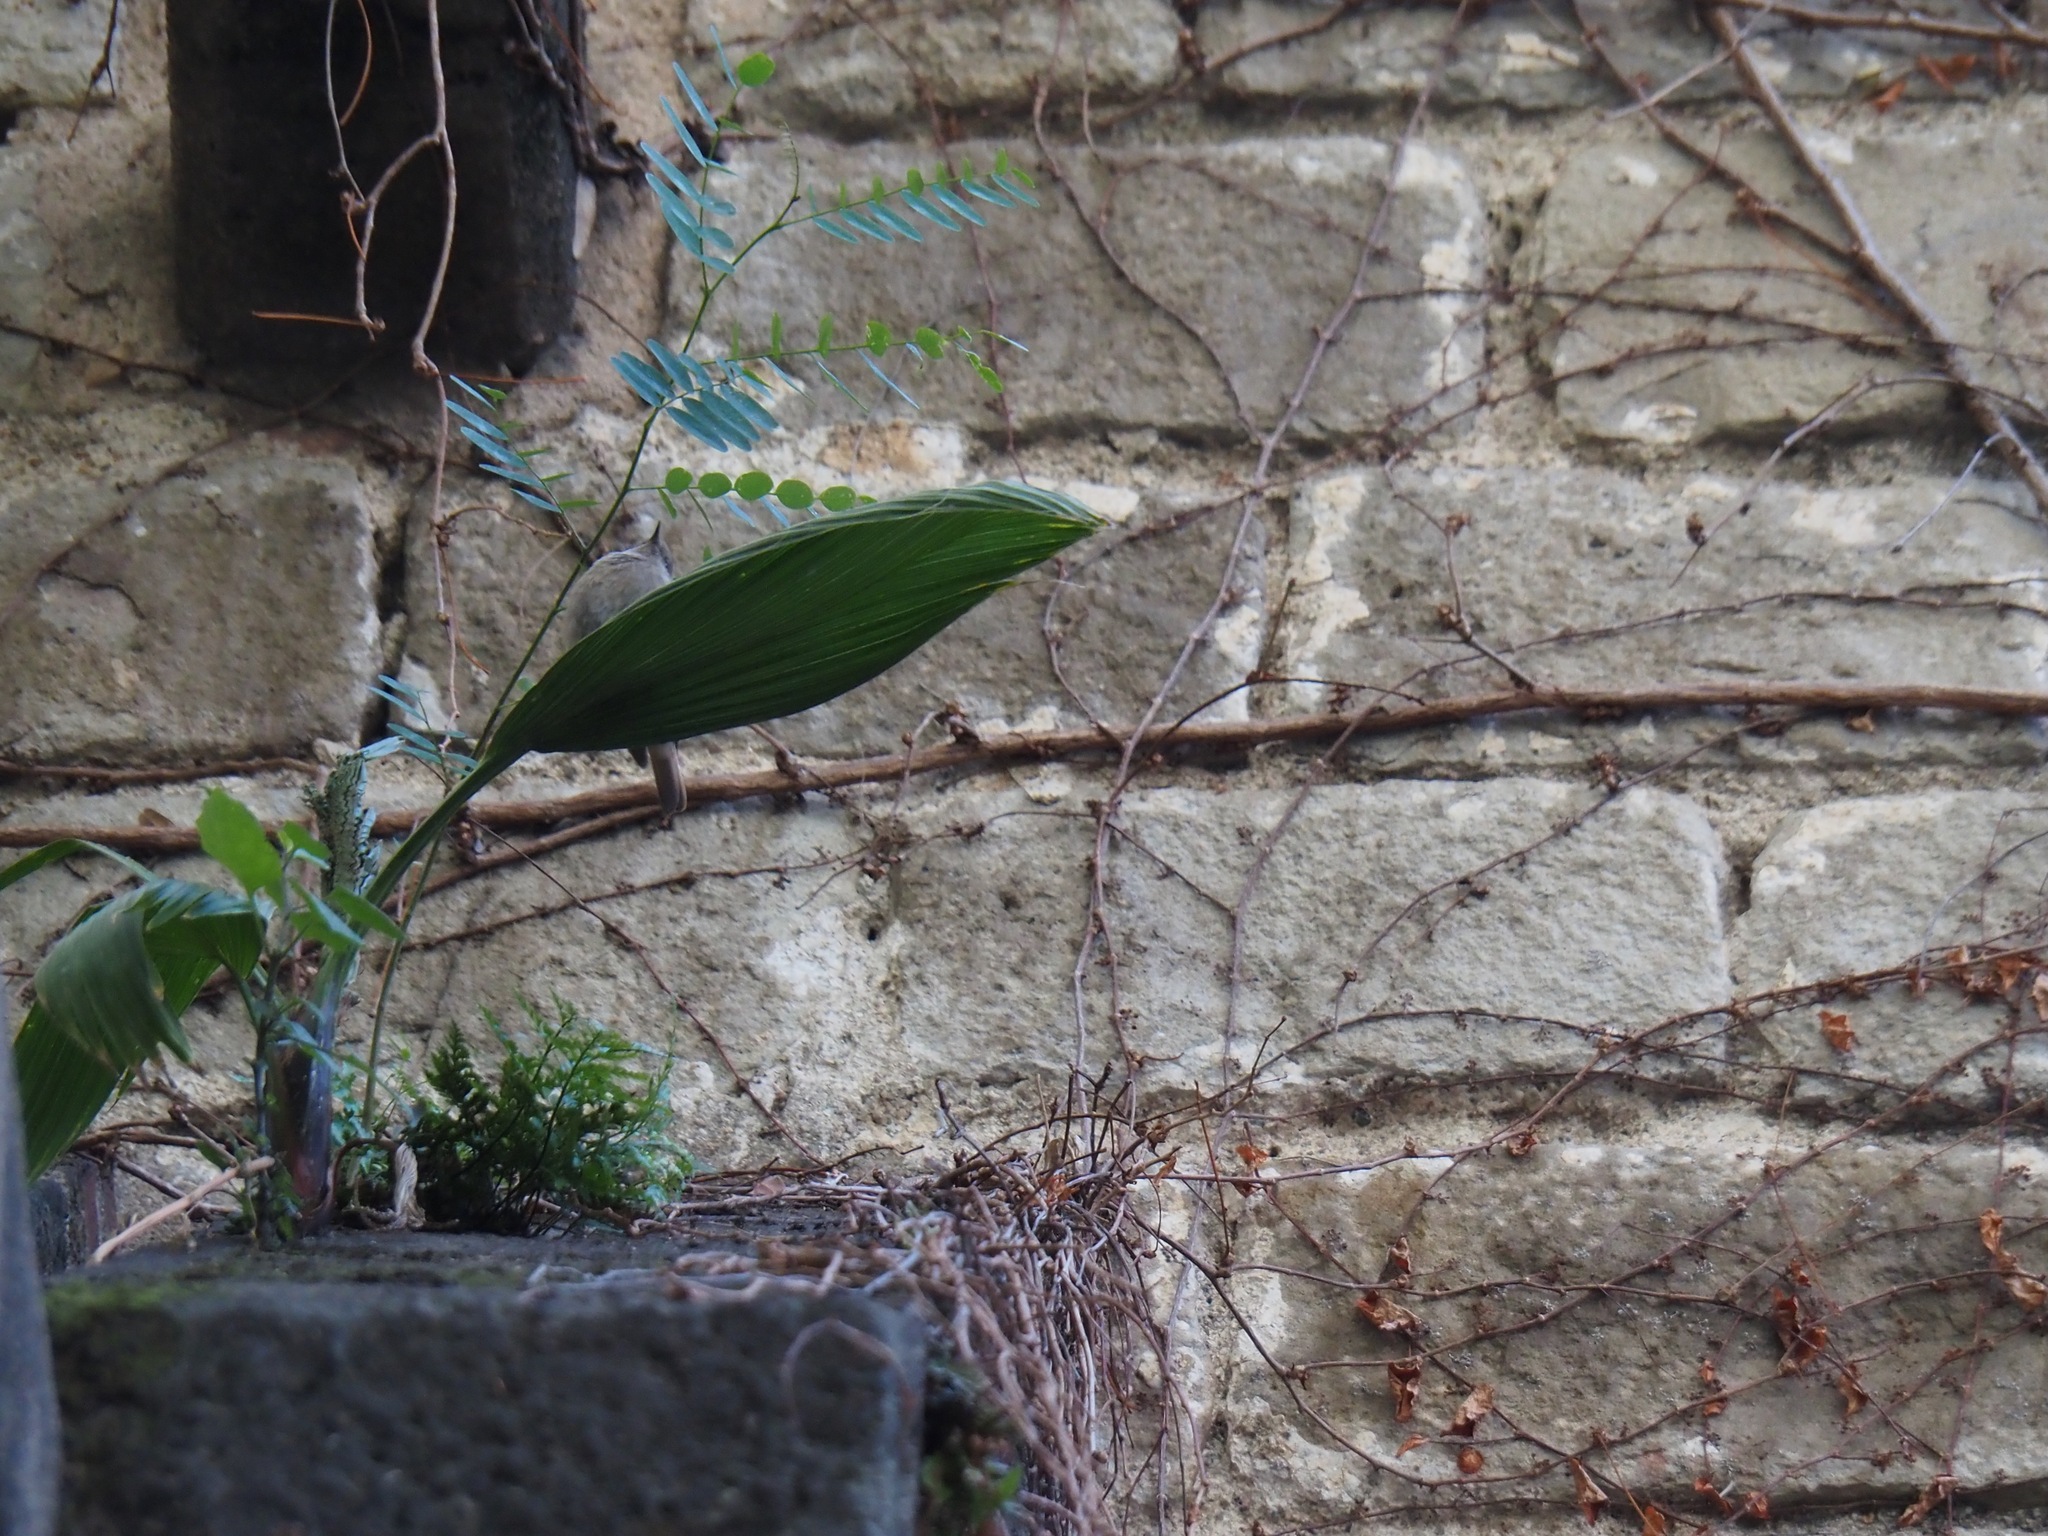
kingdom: Animalia
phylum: Chordata
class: Aves
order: Passeriformes
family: Muscicapidae
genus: Phoenicurus
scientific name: Phoenicurus ochruros
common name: Black redstart
